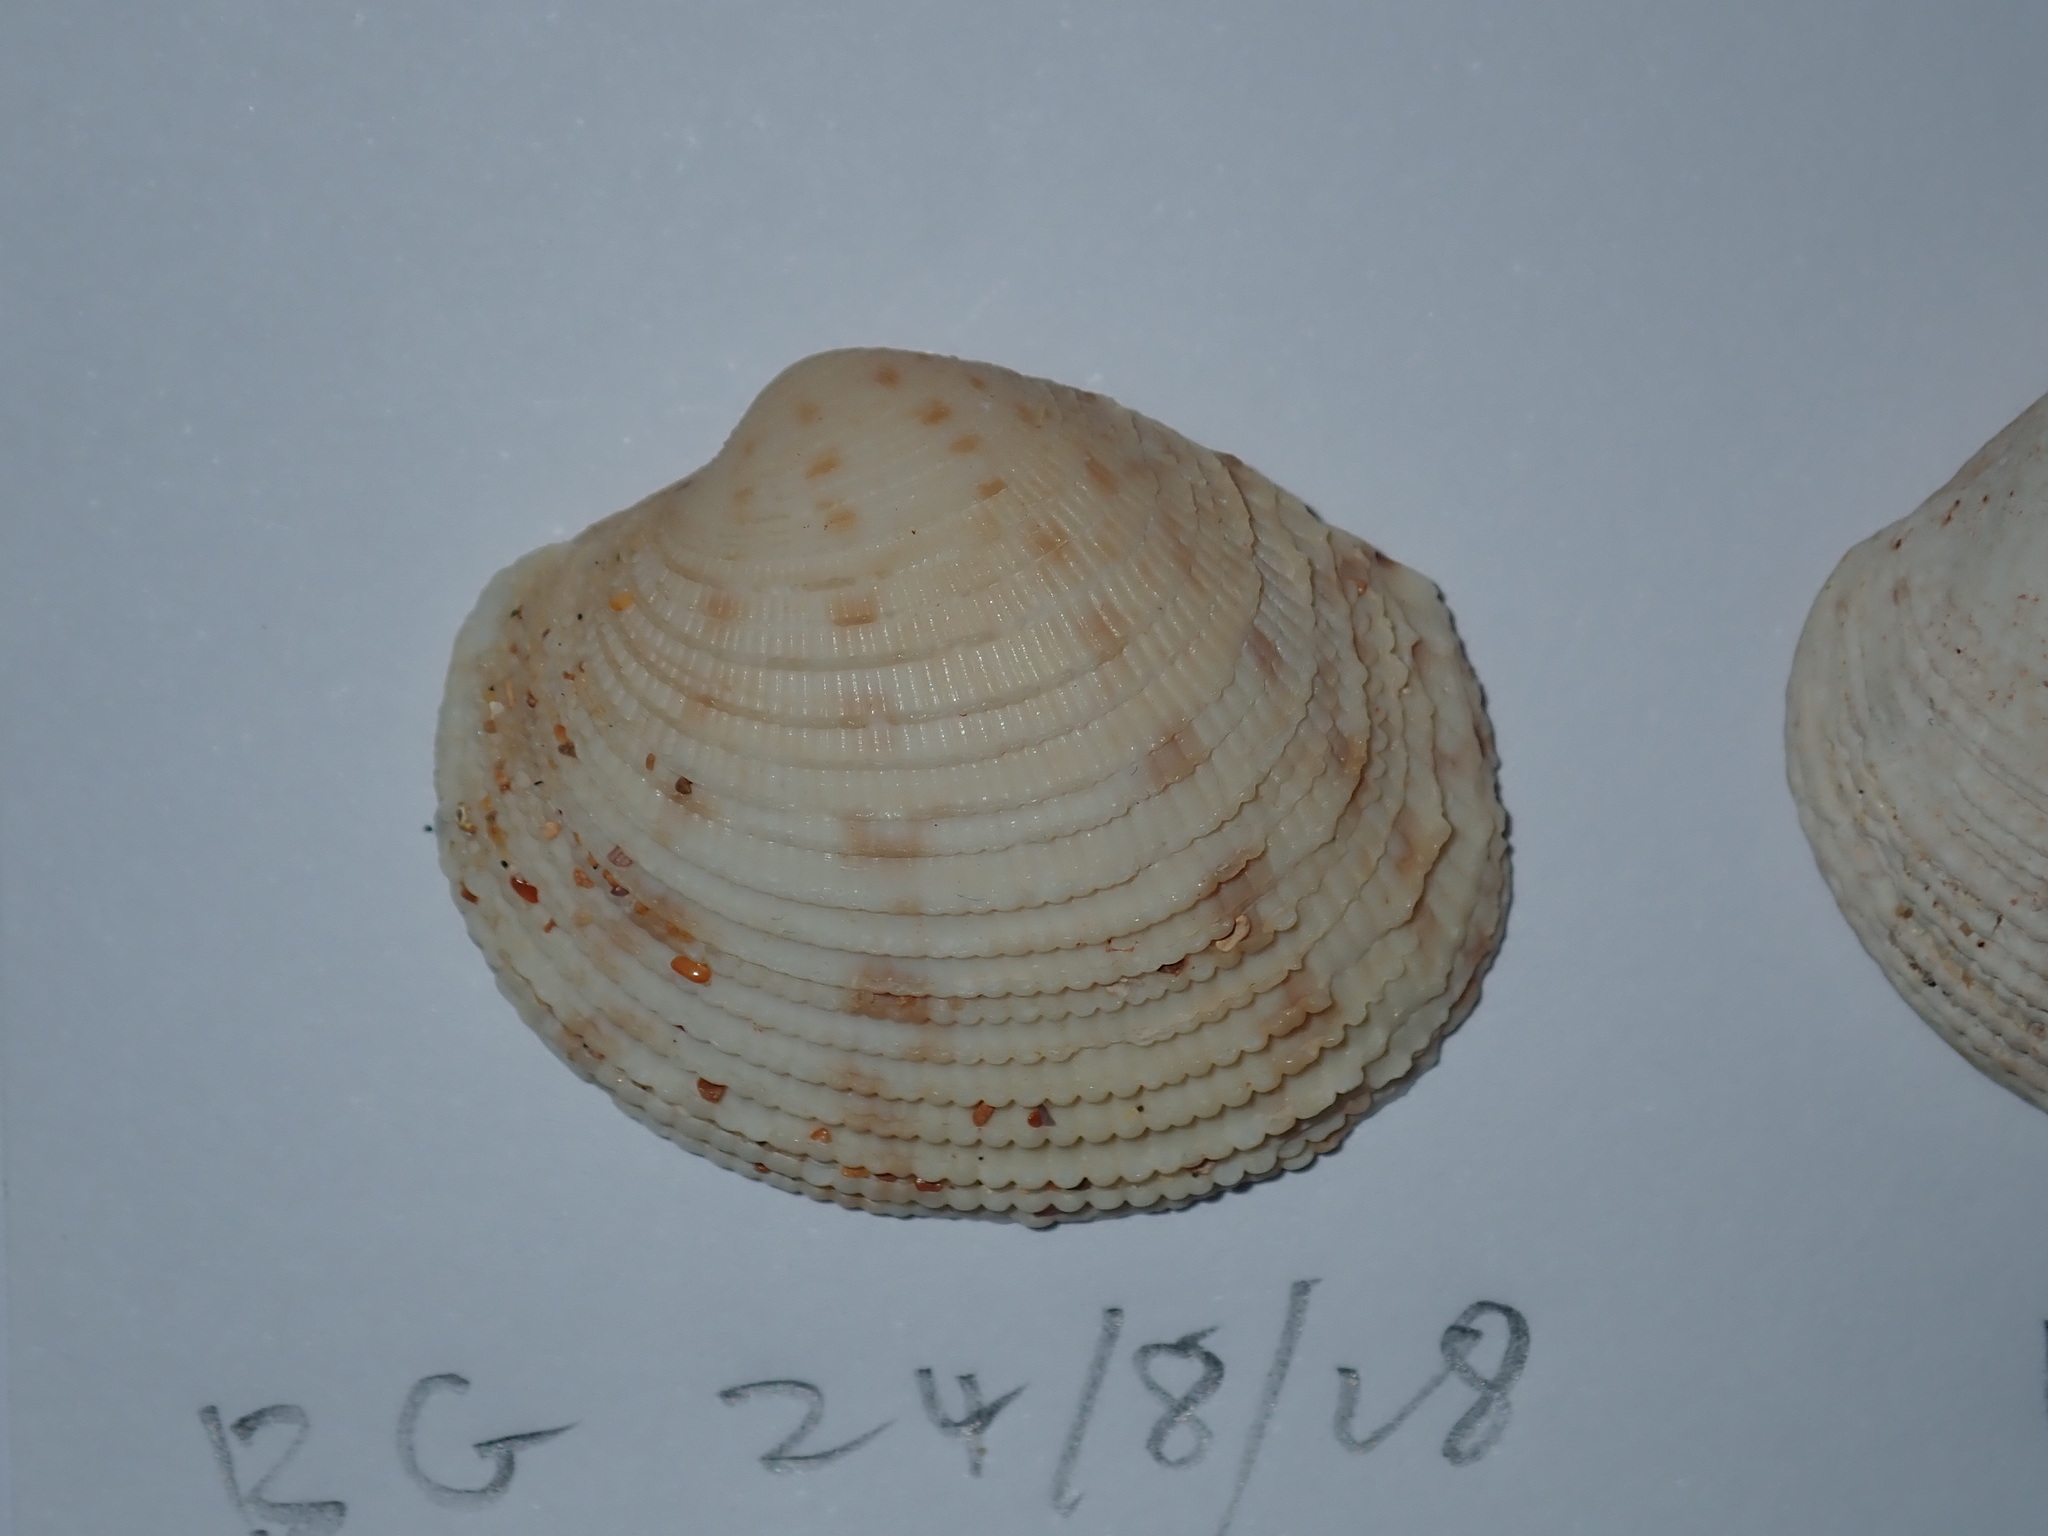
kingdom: Animalia
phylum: Mollusca
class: Bivalvia
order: Venerida
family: Veneridae
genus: Antigona
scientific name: Antigona persimilis
